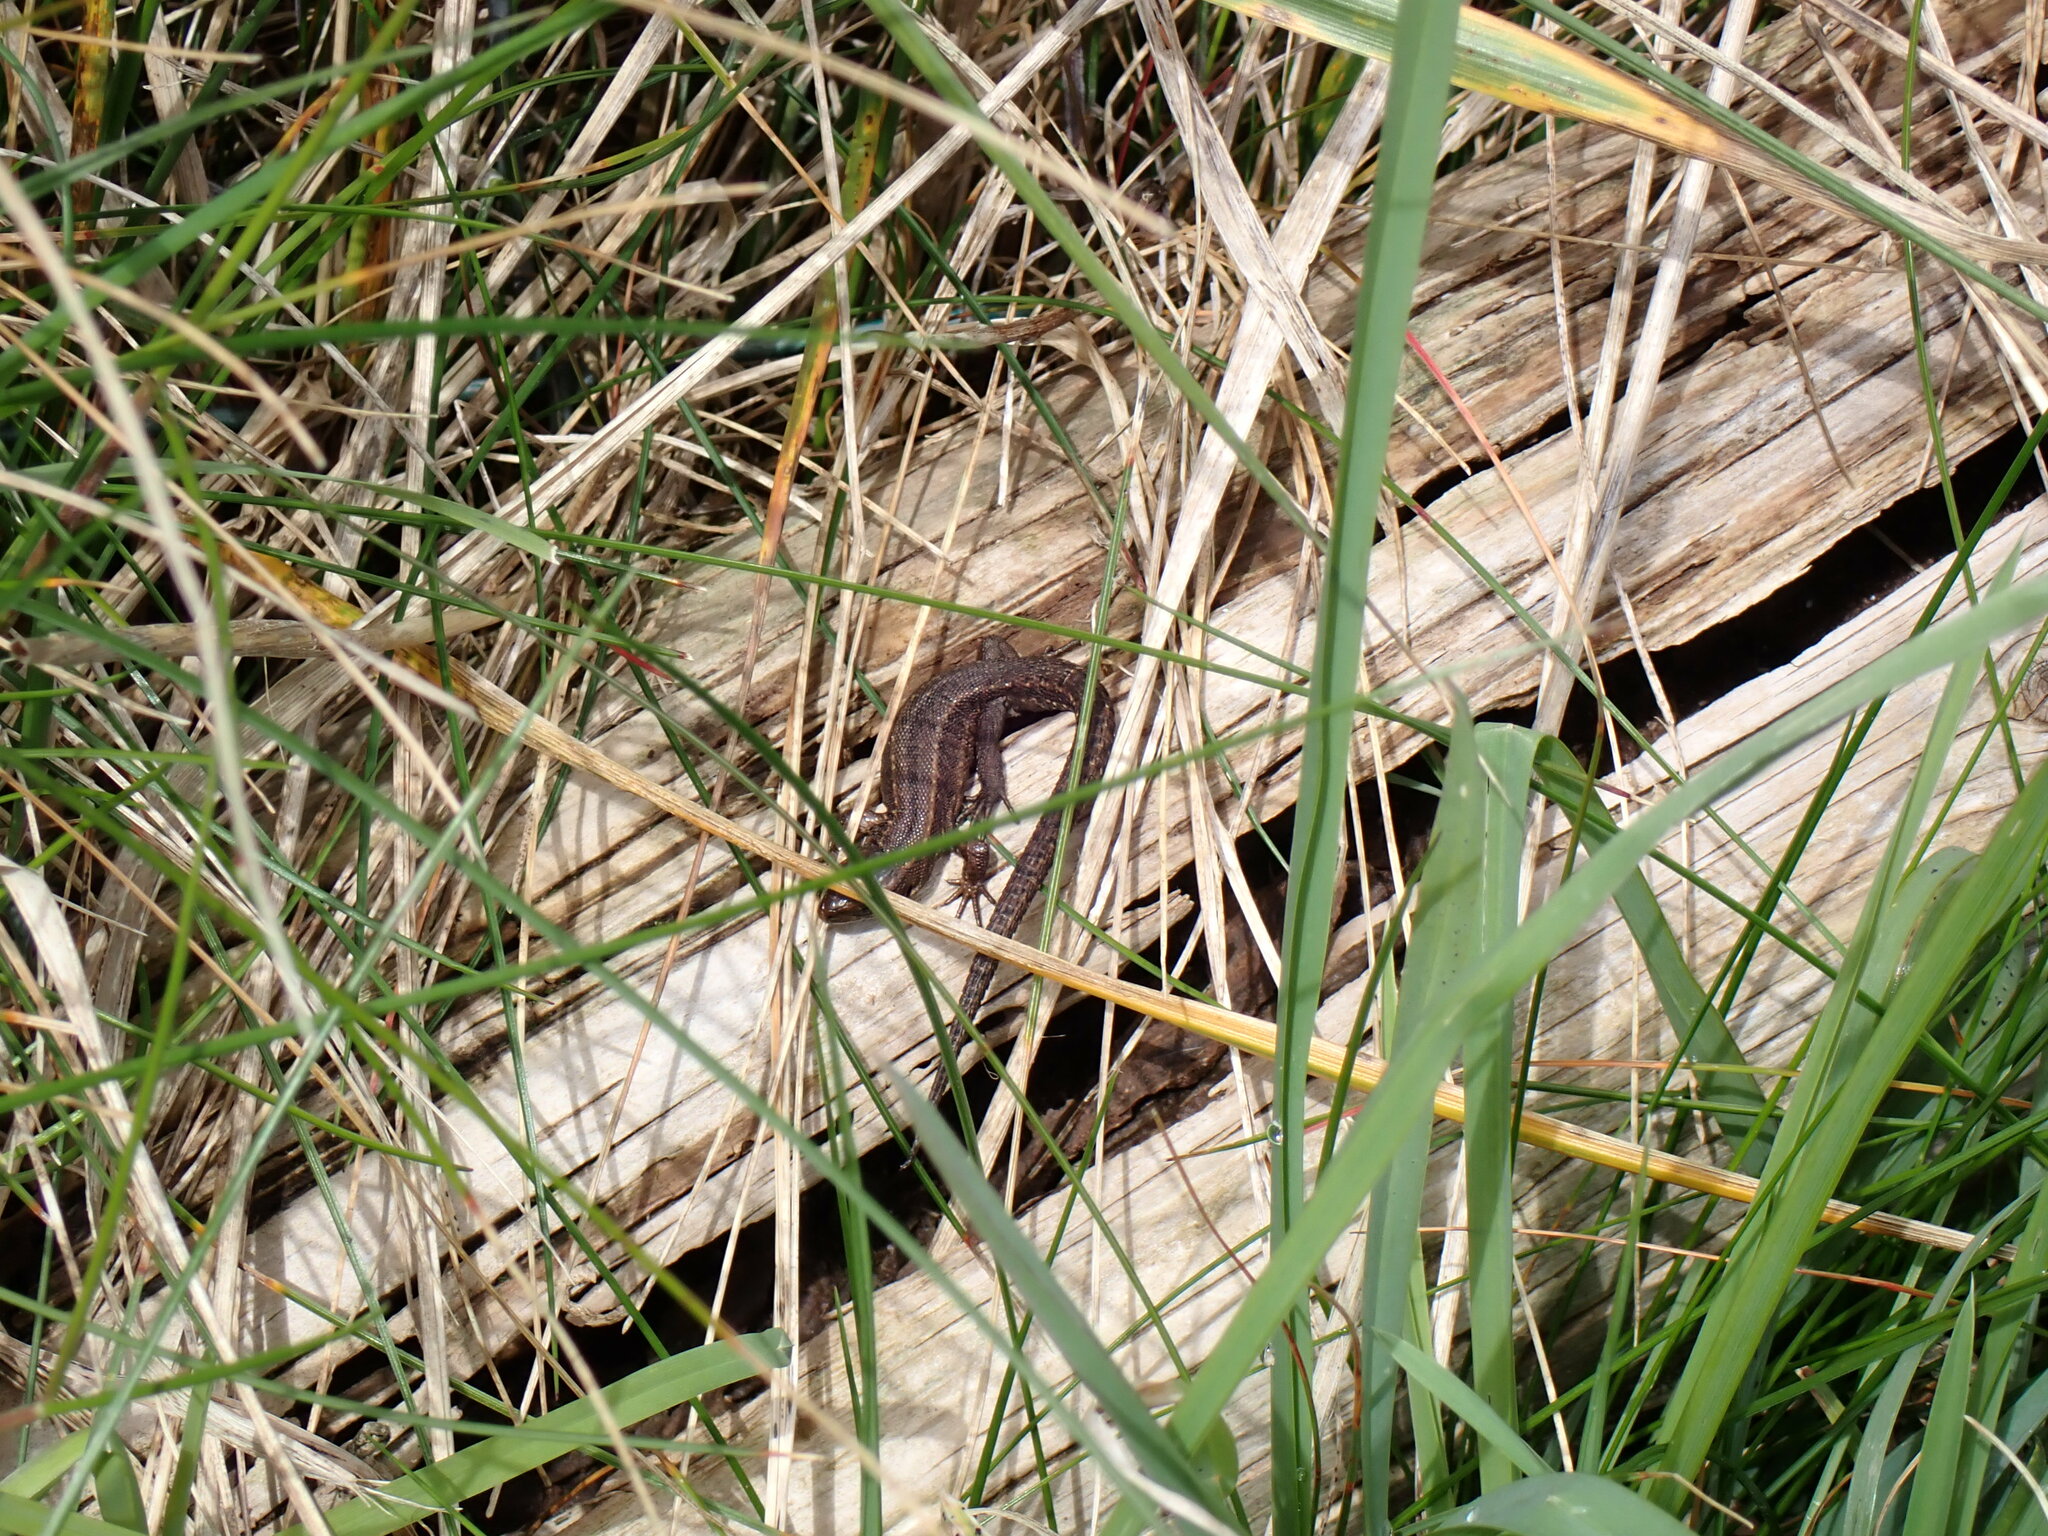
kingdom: Animalia
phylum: Chordata
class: Squamata
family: Lacertidae
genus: Zootoca
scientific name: Zootoca vivipara
